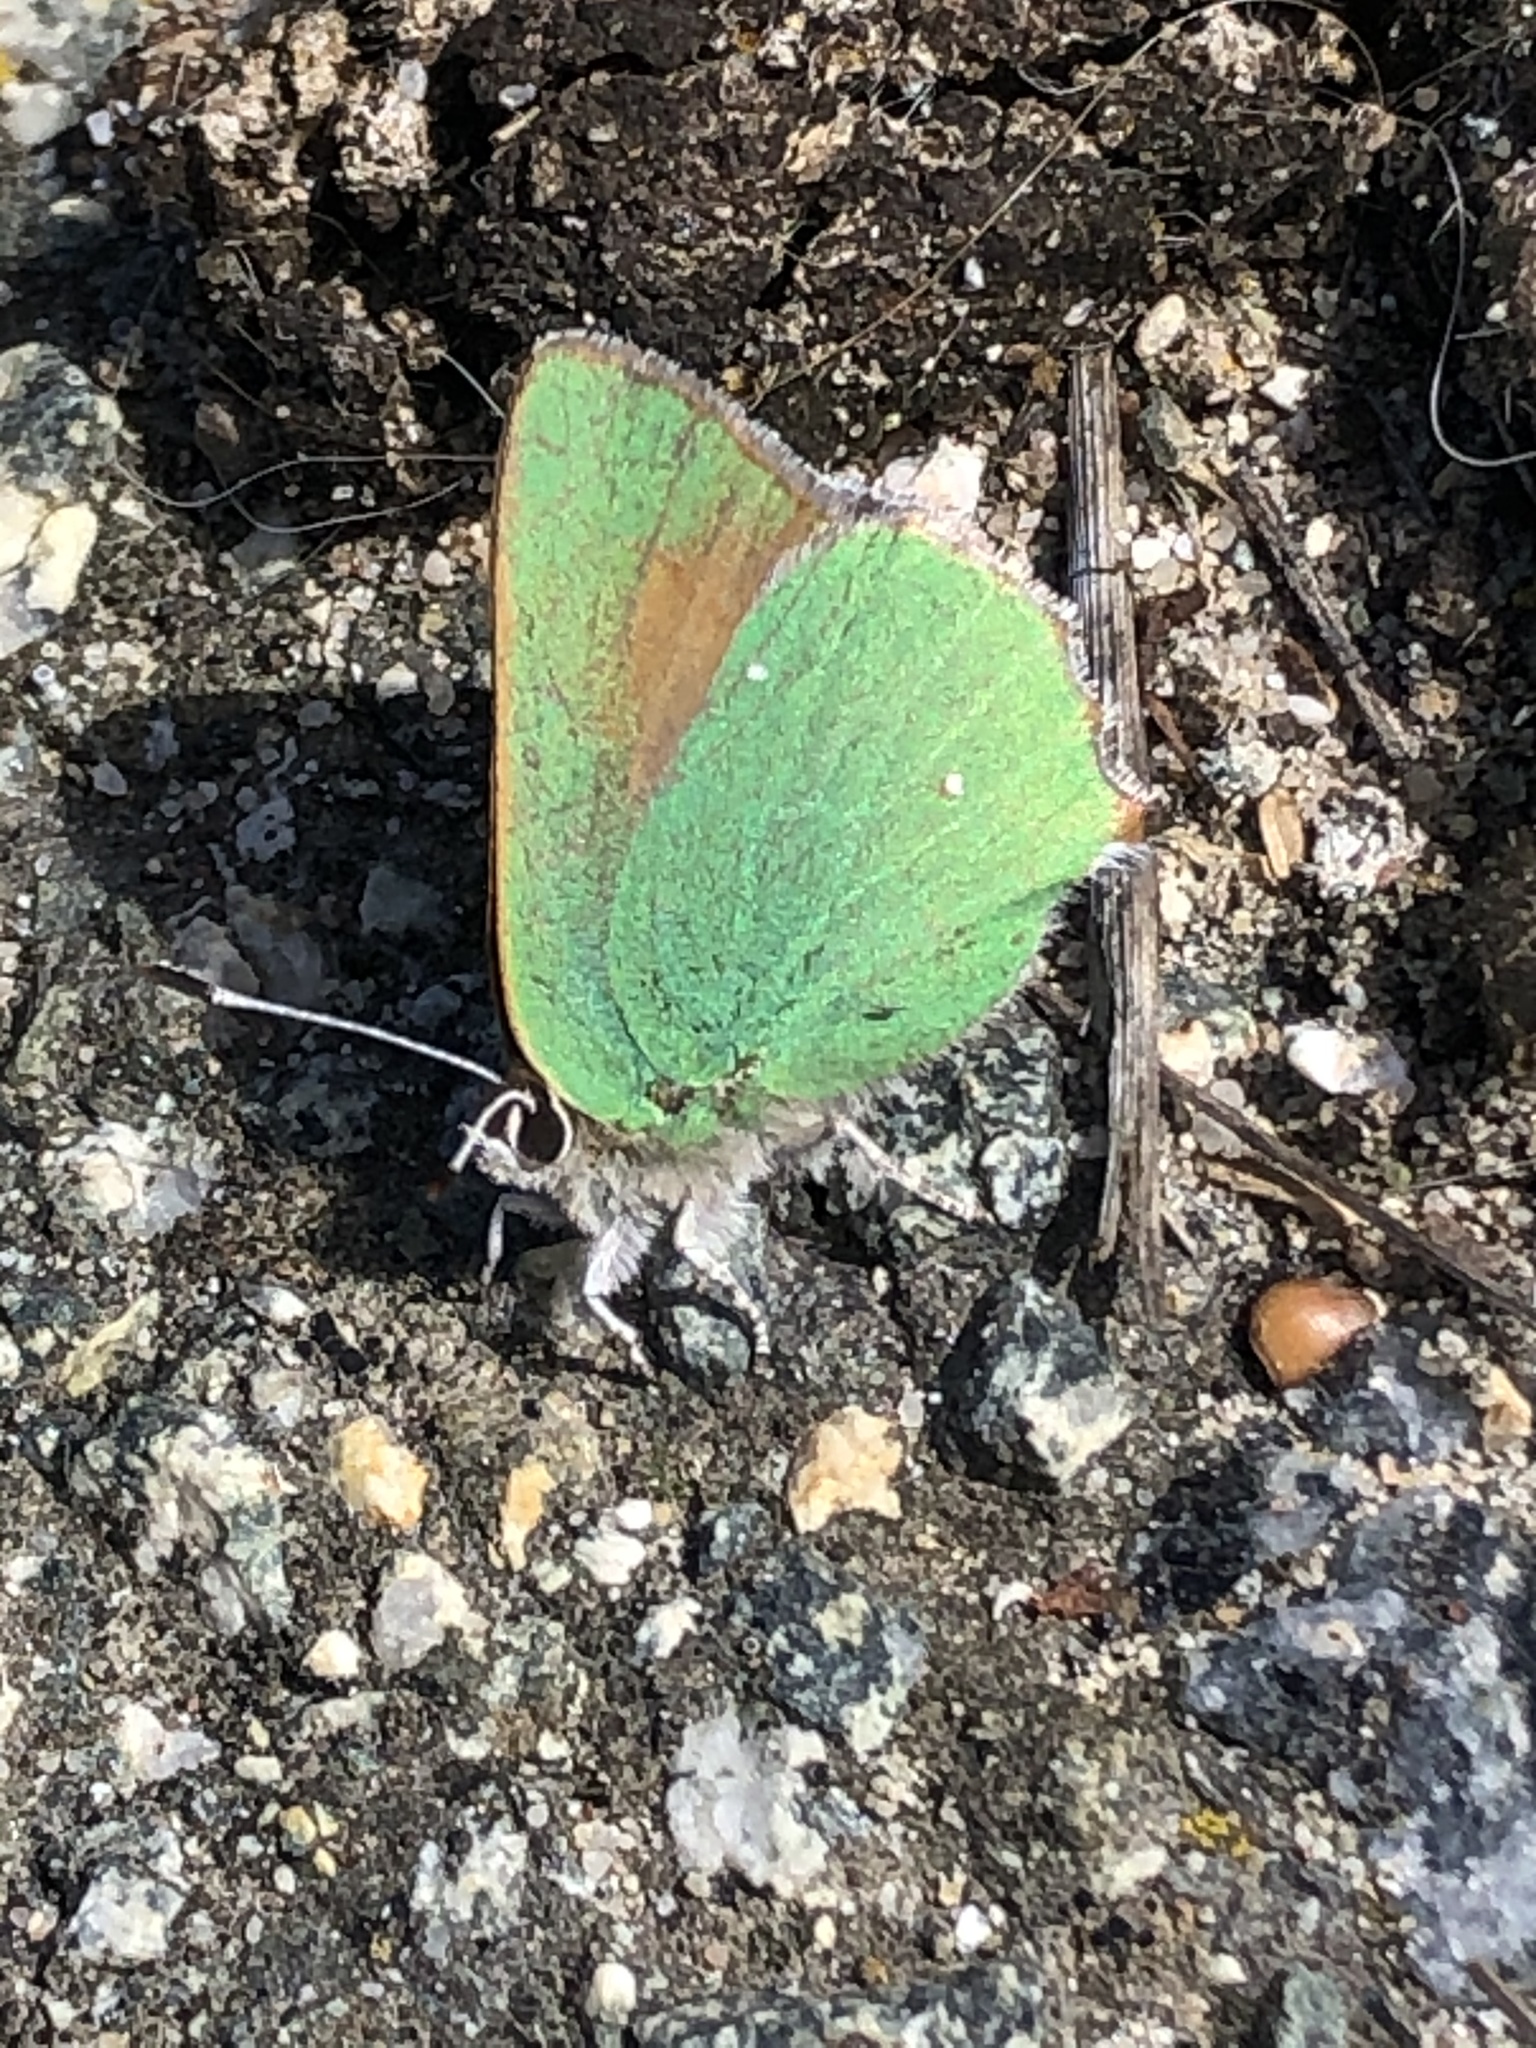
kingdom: Animalia
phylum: Arthropoda
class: Insecta
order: Lepidoptera
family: Lycaenidae
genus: Callophrys
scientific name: Callophrys dumetorum
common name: Bramble hairstreak
